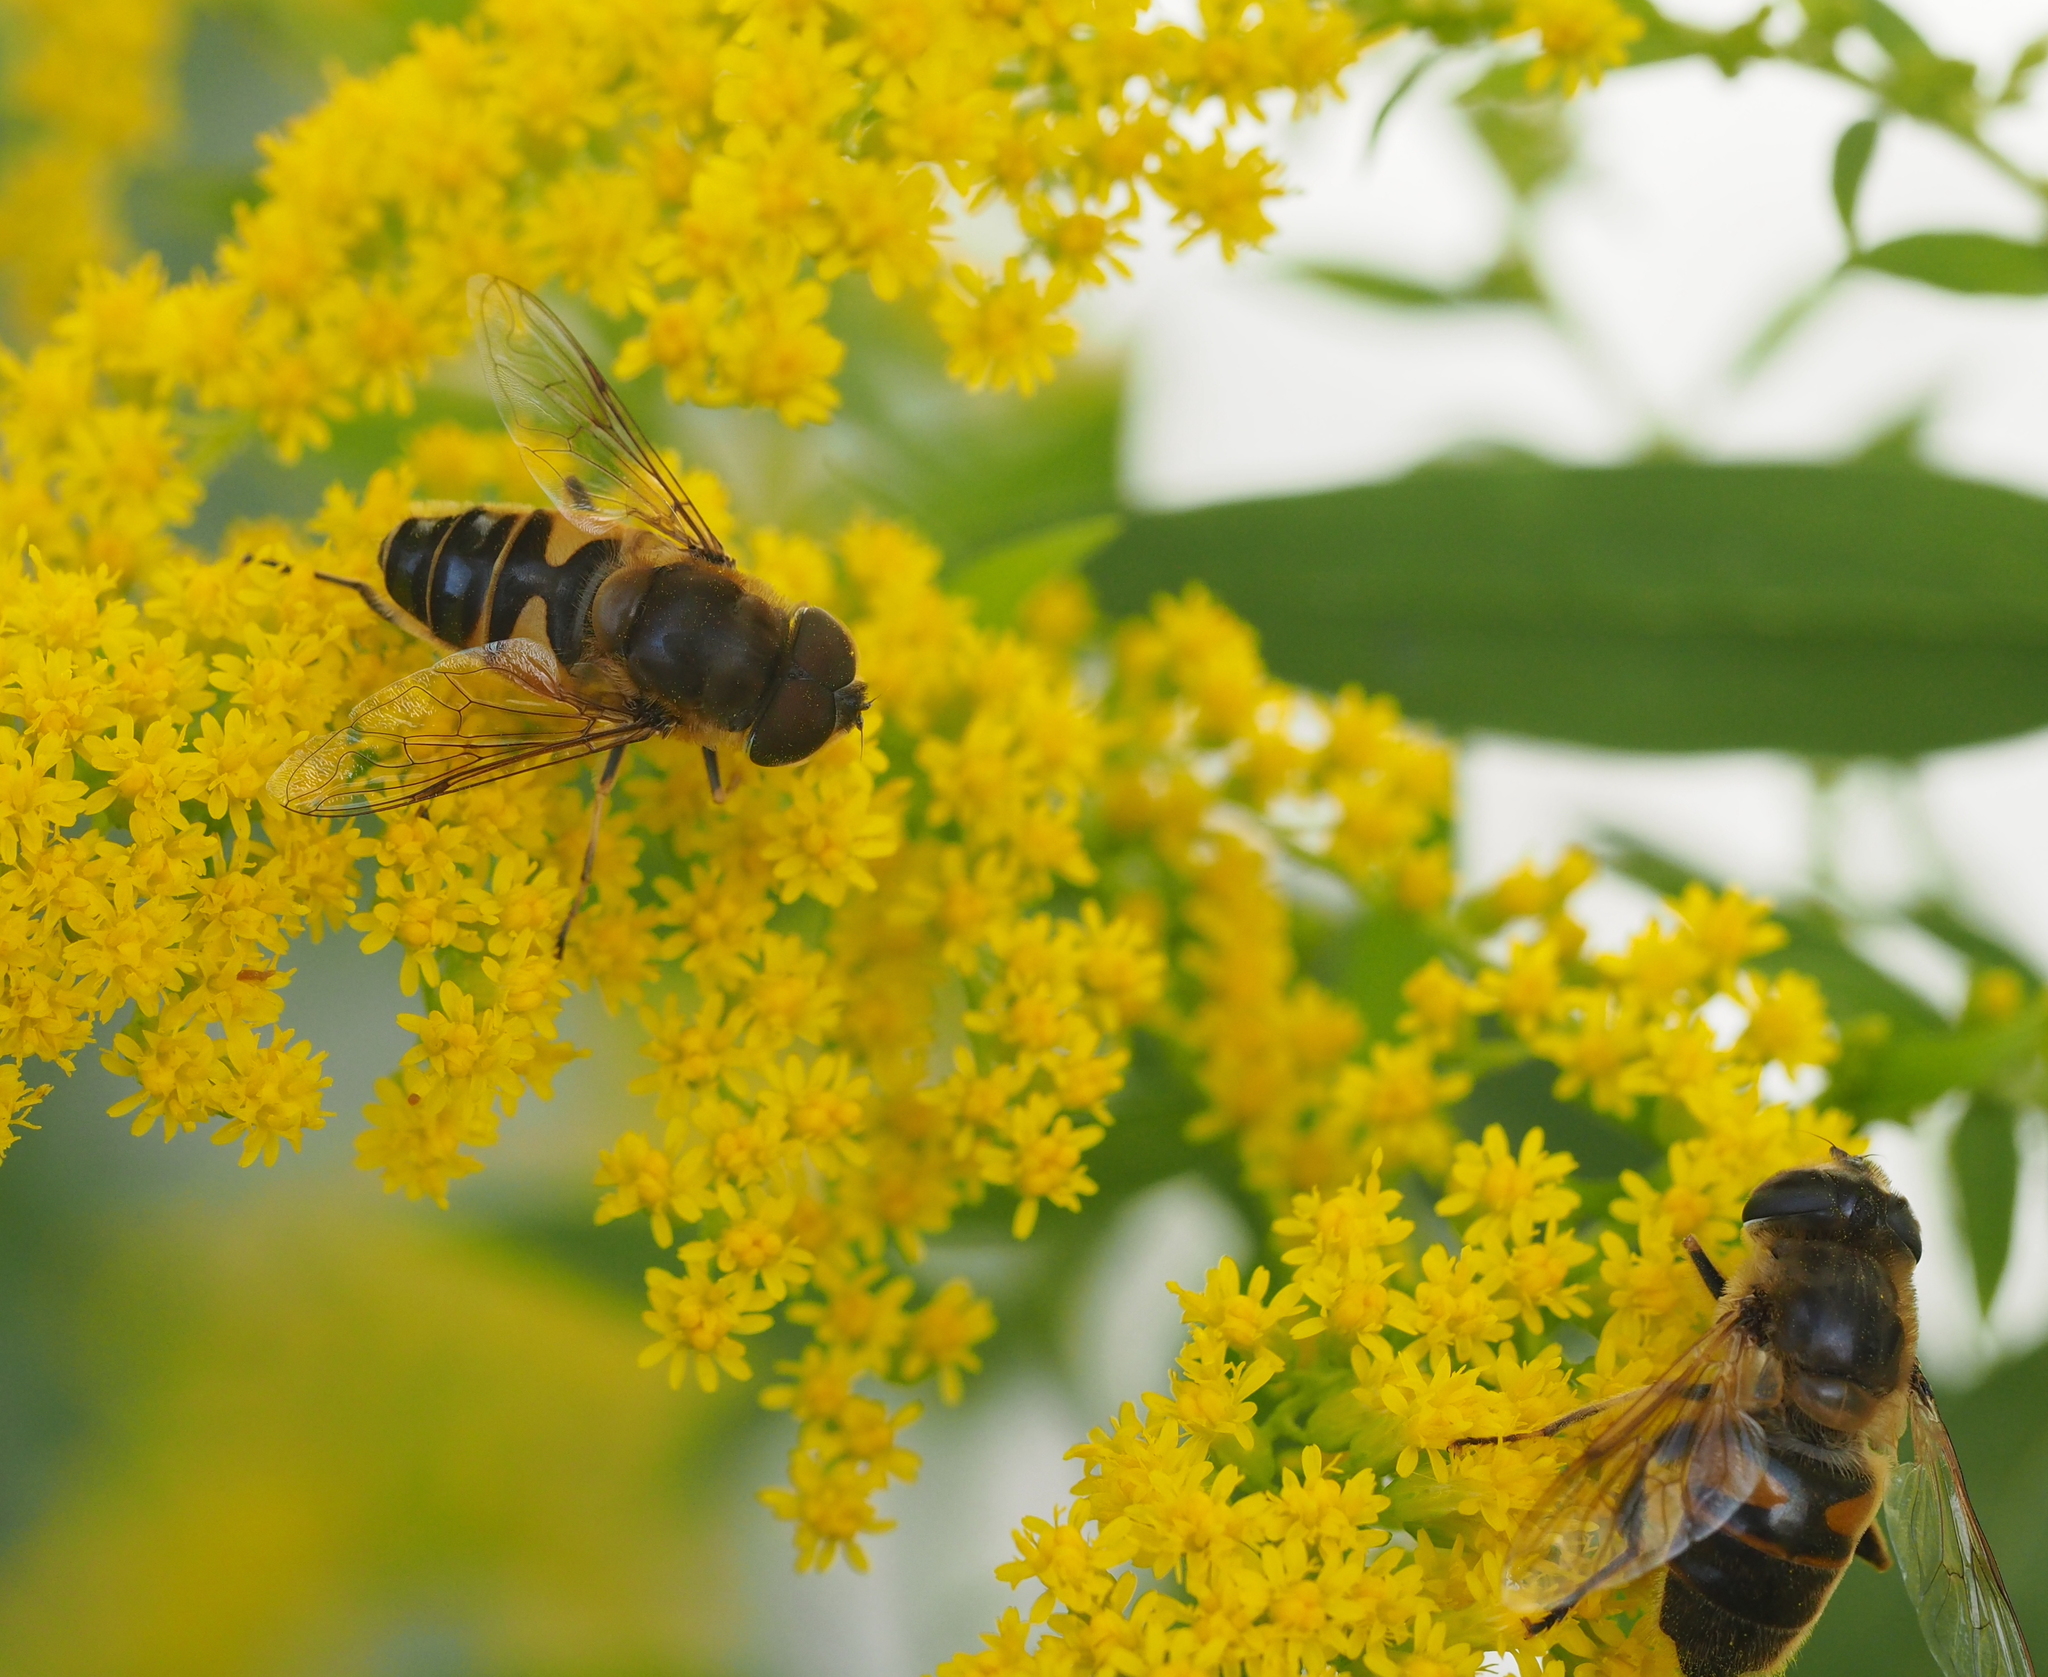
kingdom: Animalia
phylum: Arthropoda
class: Insecta
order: Diptera
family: Syrphidae
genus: Eristalis
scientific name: Eristalis pertinax
